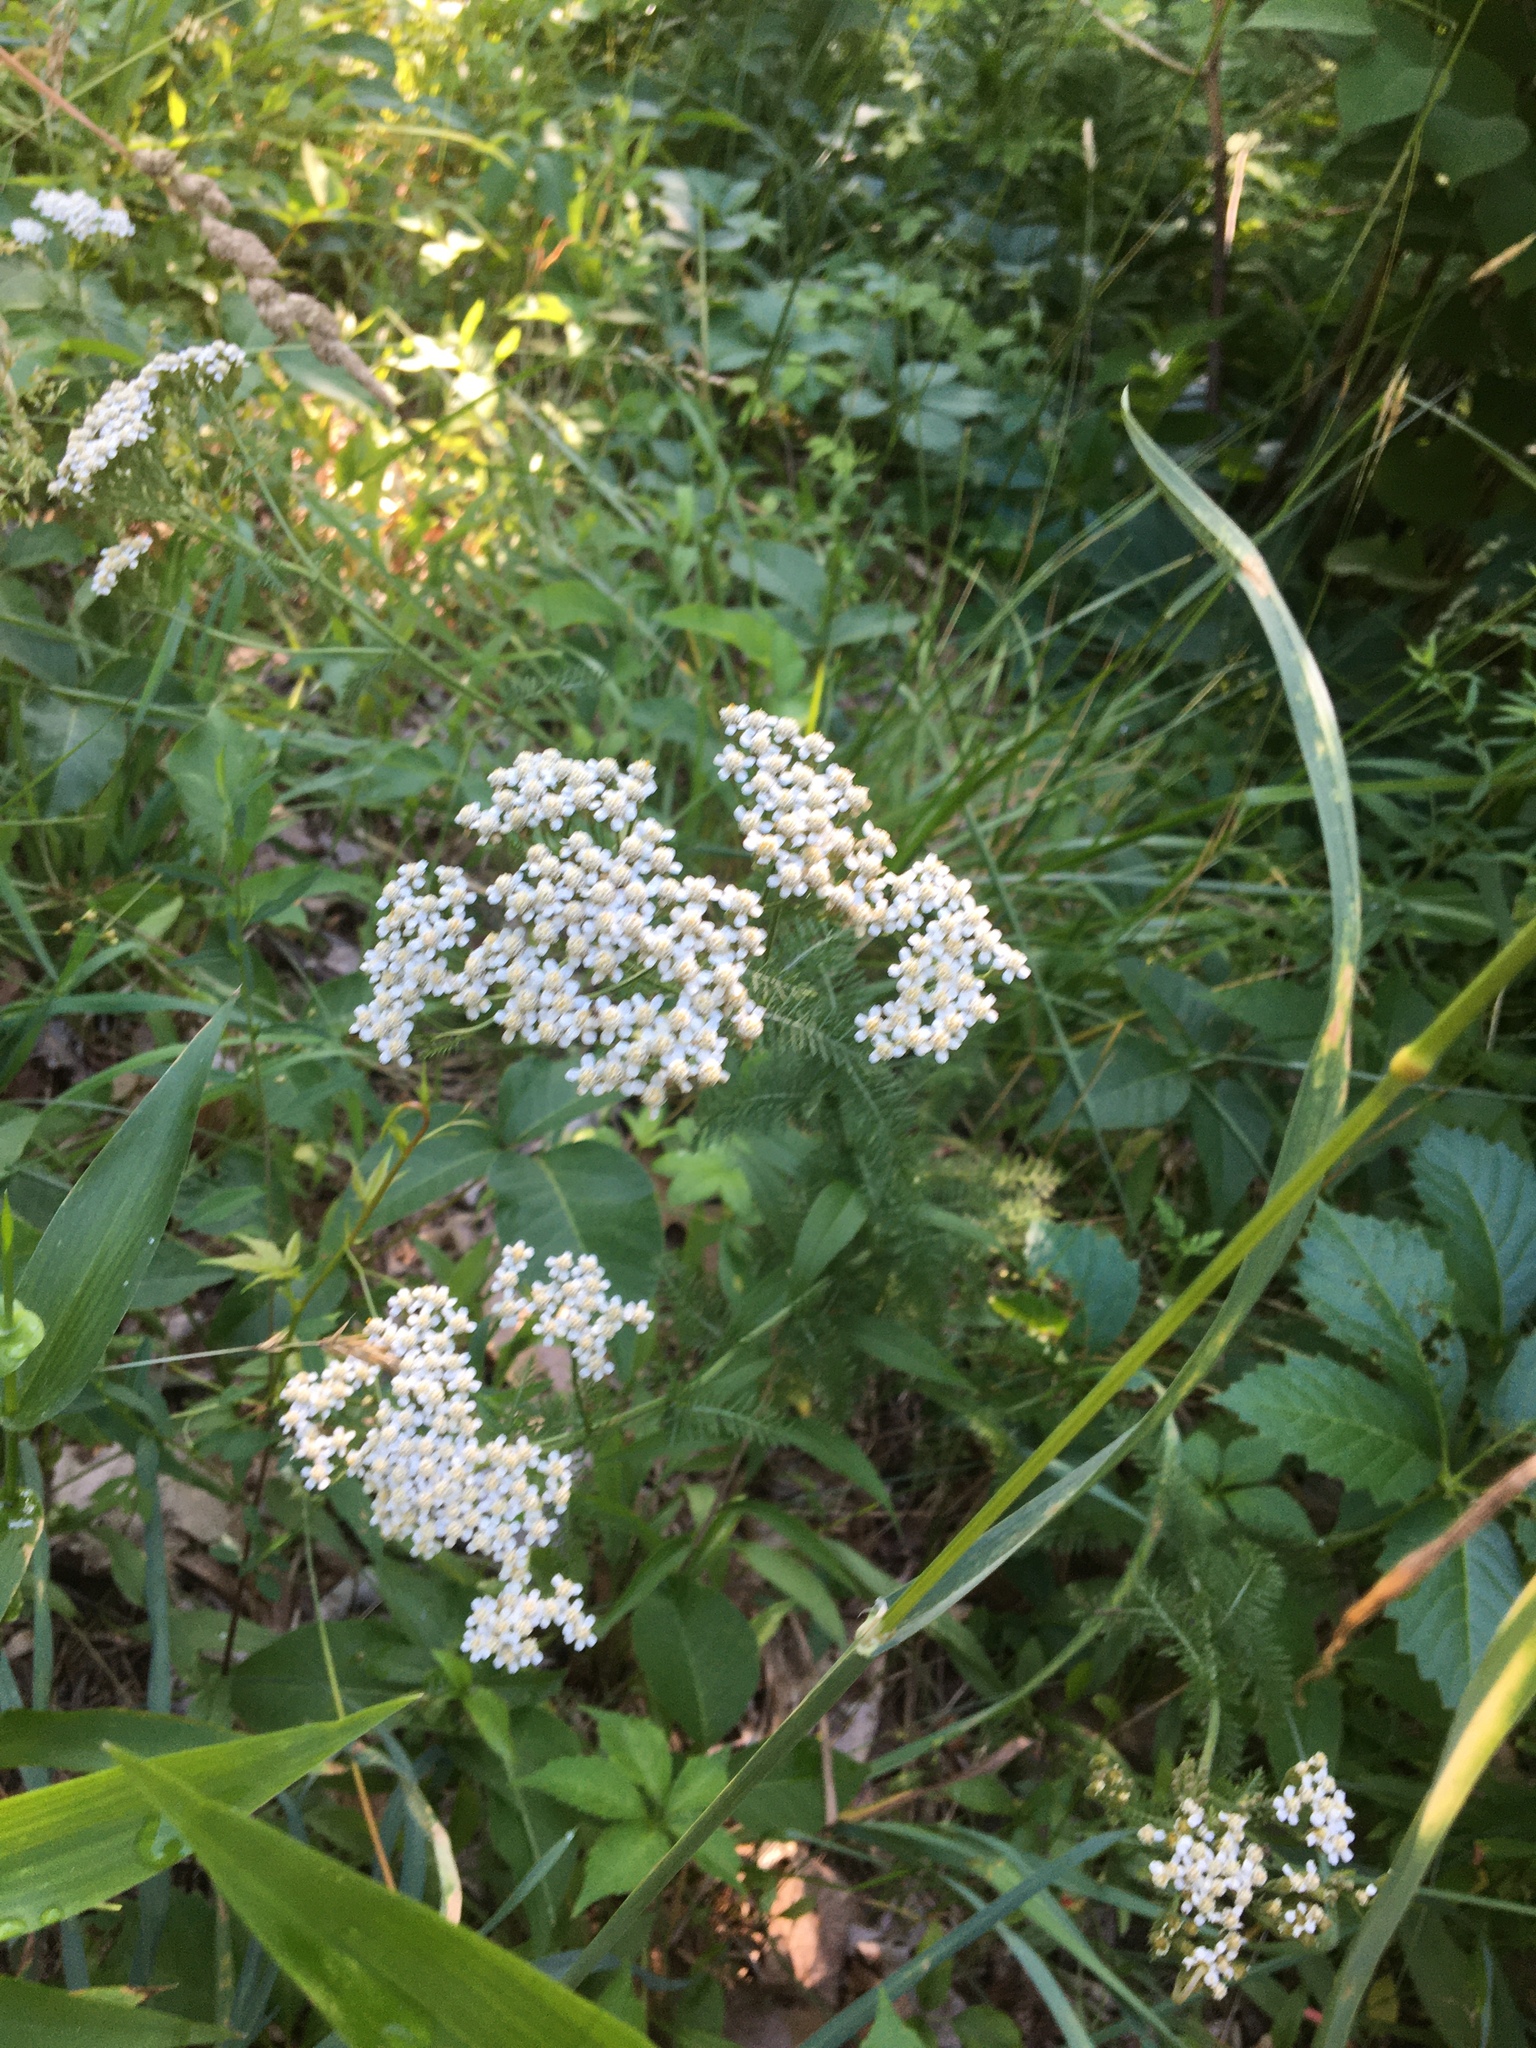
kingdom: Plantae
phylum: Tracheophyta
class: Magnoliopsida
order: Asterales
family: Asteraceae
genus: Achillea
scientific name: Achillea millefolium
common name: Yarrow
